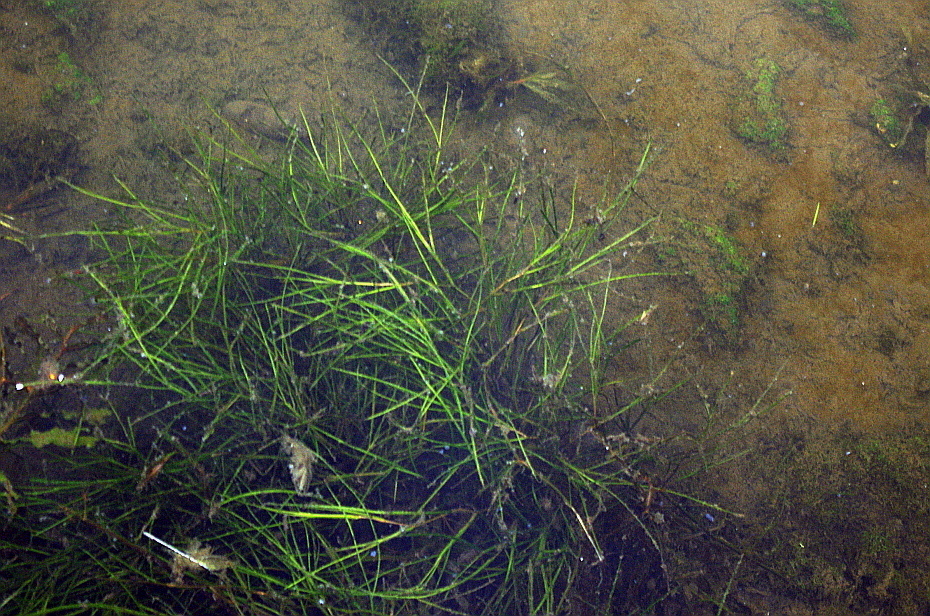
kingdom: Plantae
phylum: Tracheophyta
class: Liliopsida
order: Alismatales
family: Potamogetonaceae
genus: Stuckenia
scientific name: Stuckenia pectinata
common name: Sago pondweed
